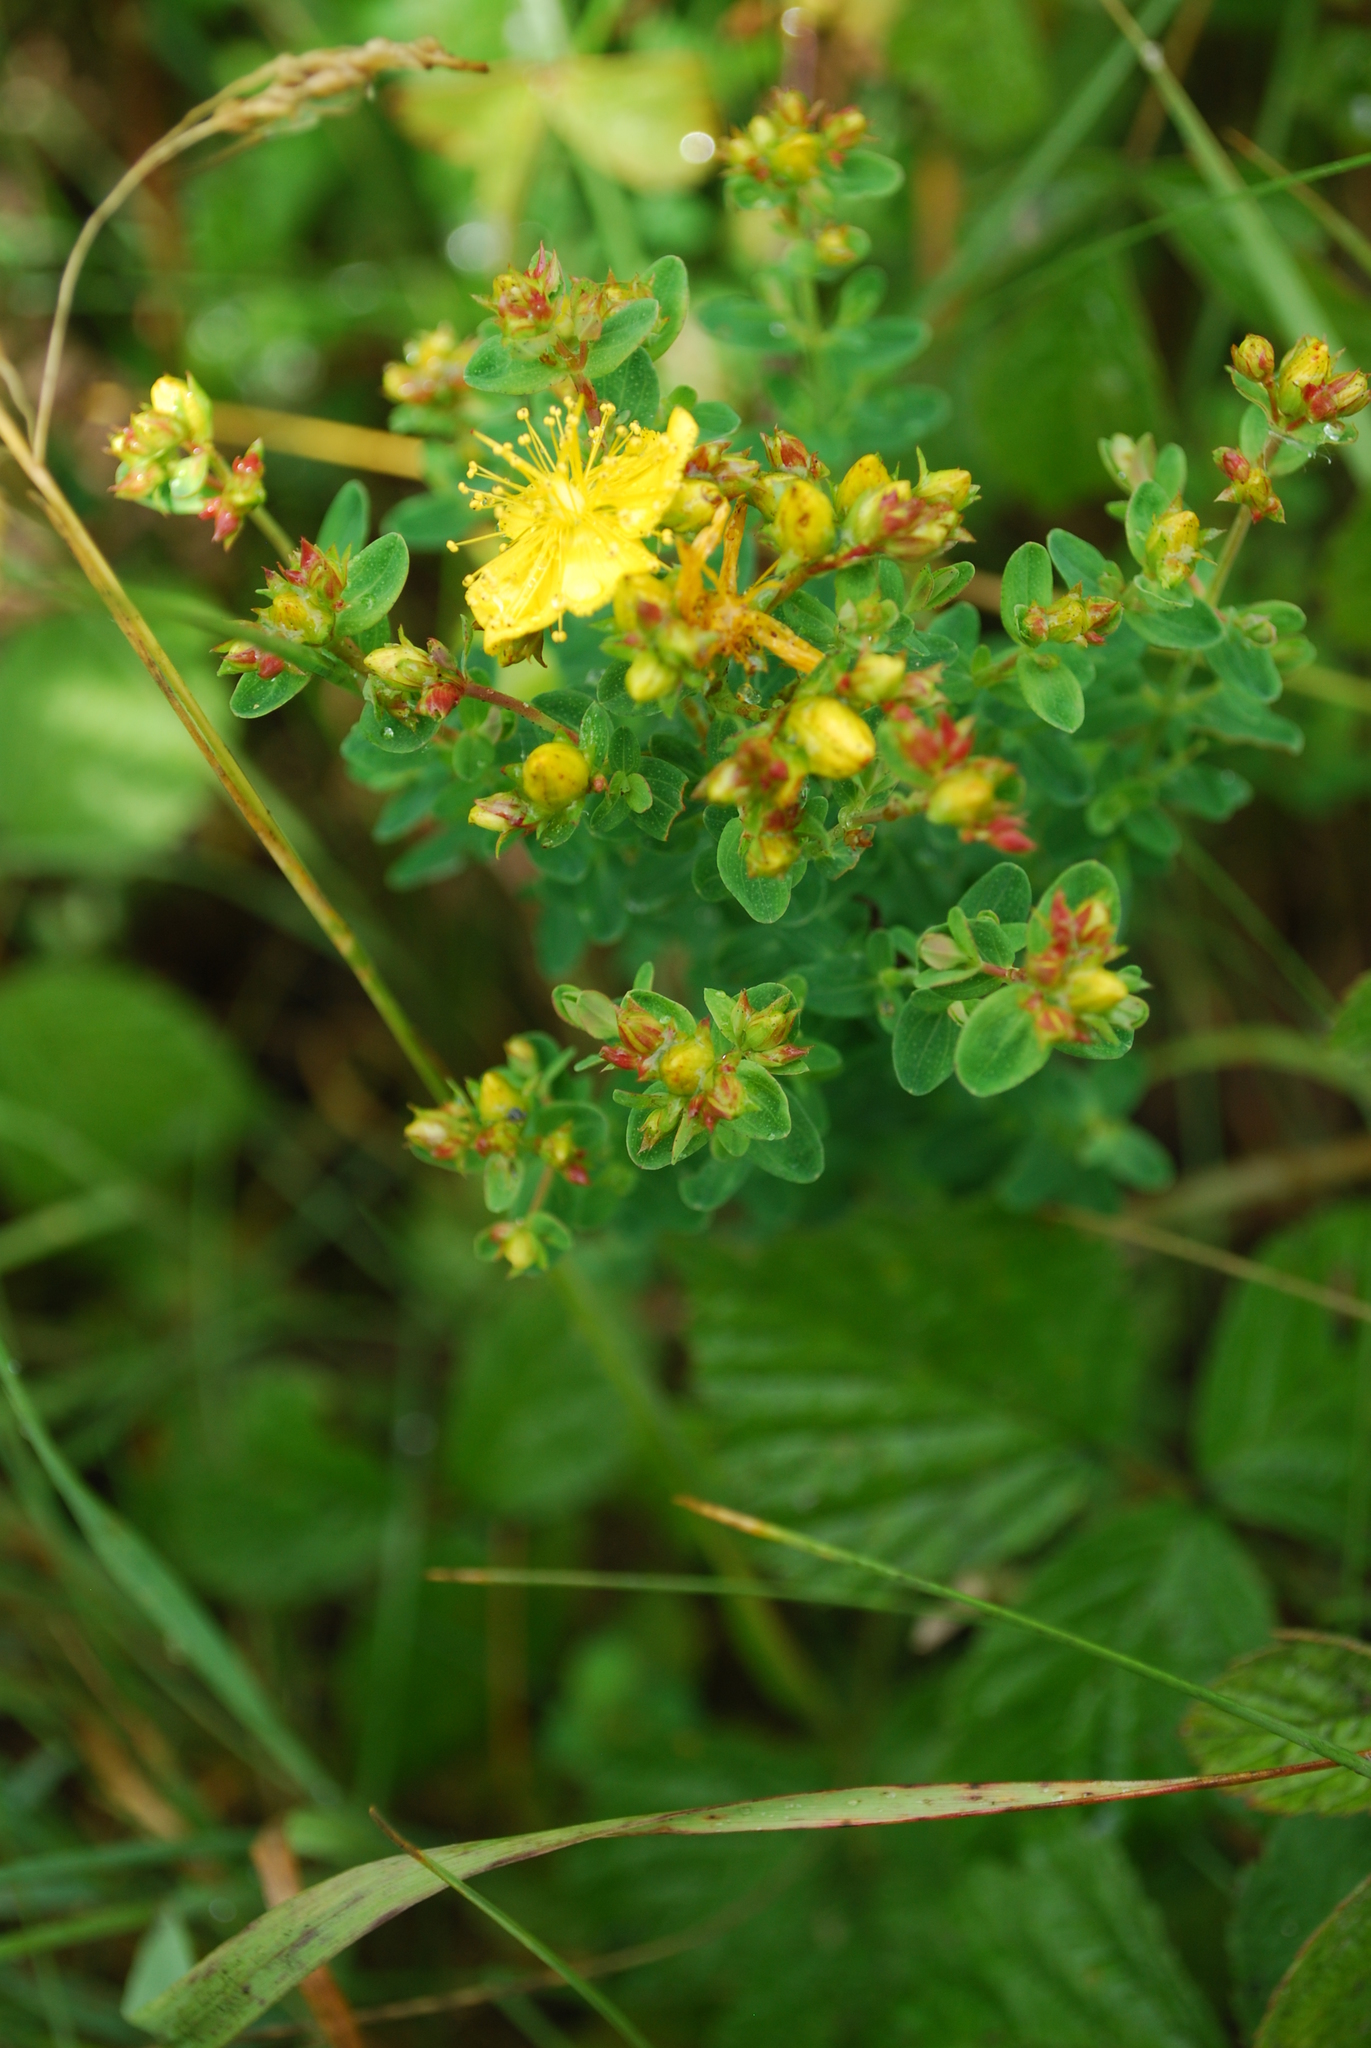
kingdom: Plantae
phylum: Tracheophyta
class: Magnoliopsida
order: Malpighiales
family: Hypericaceae
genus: Hypericum
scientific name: Hypericum perforatum
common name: Common st. johnswort
